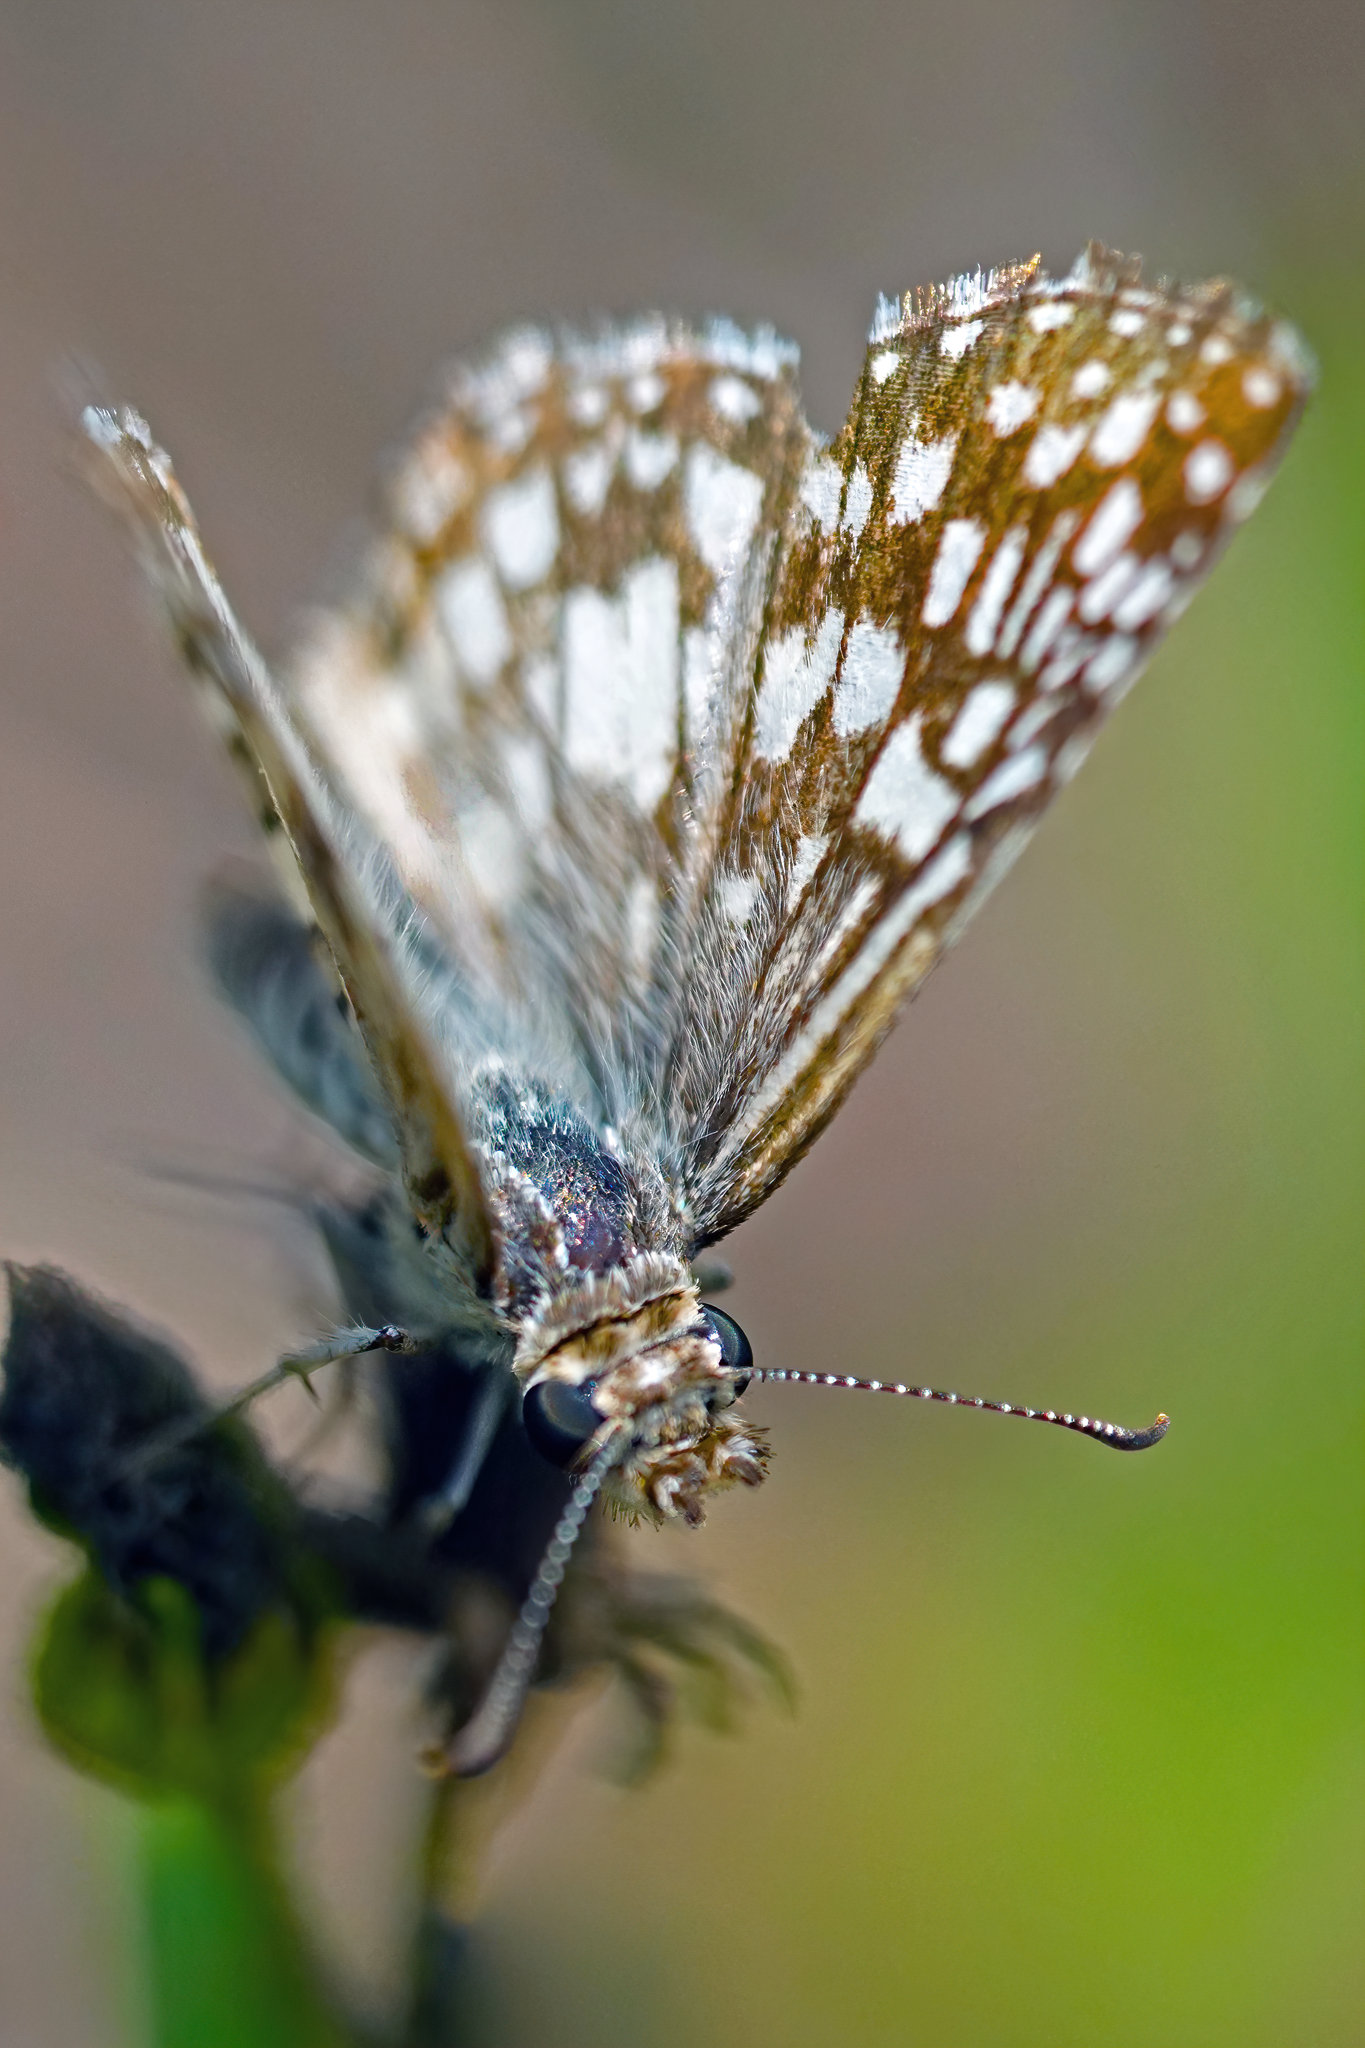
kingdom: Animalia
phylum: Arthropoda
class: Insecta
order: Lepidoptera
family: Hesperiidae
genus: Pyrgus
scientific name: Pyrgus oileus
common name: Tropical checkered-skipper
